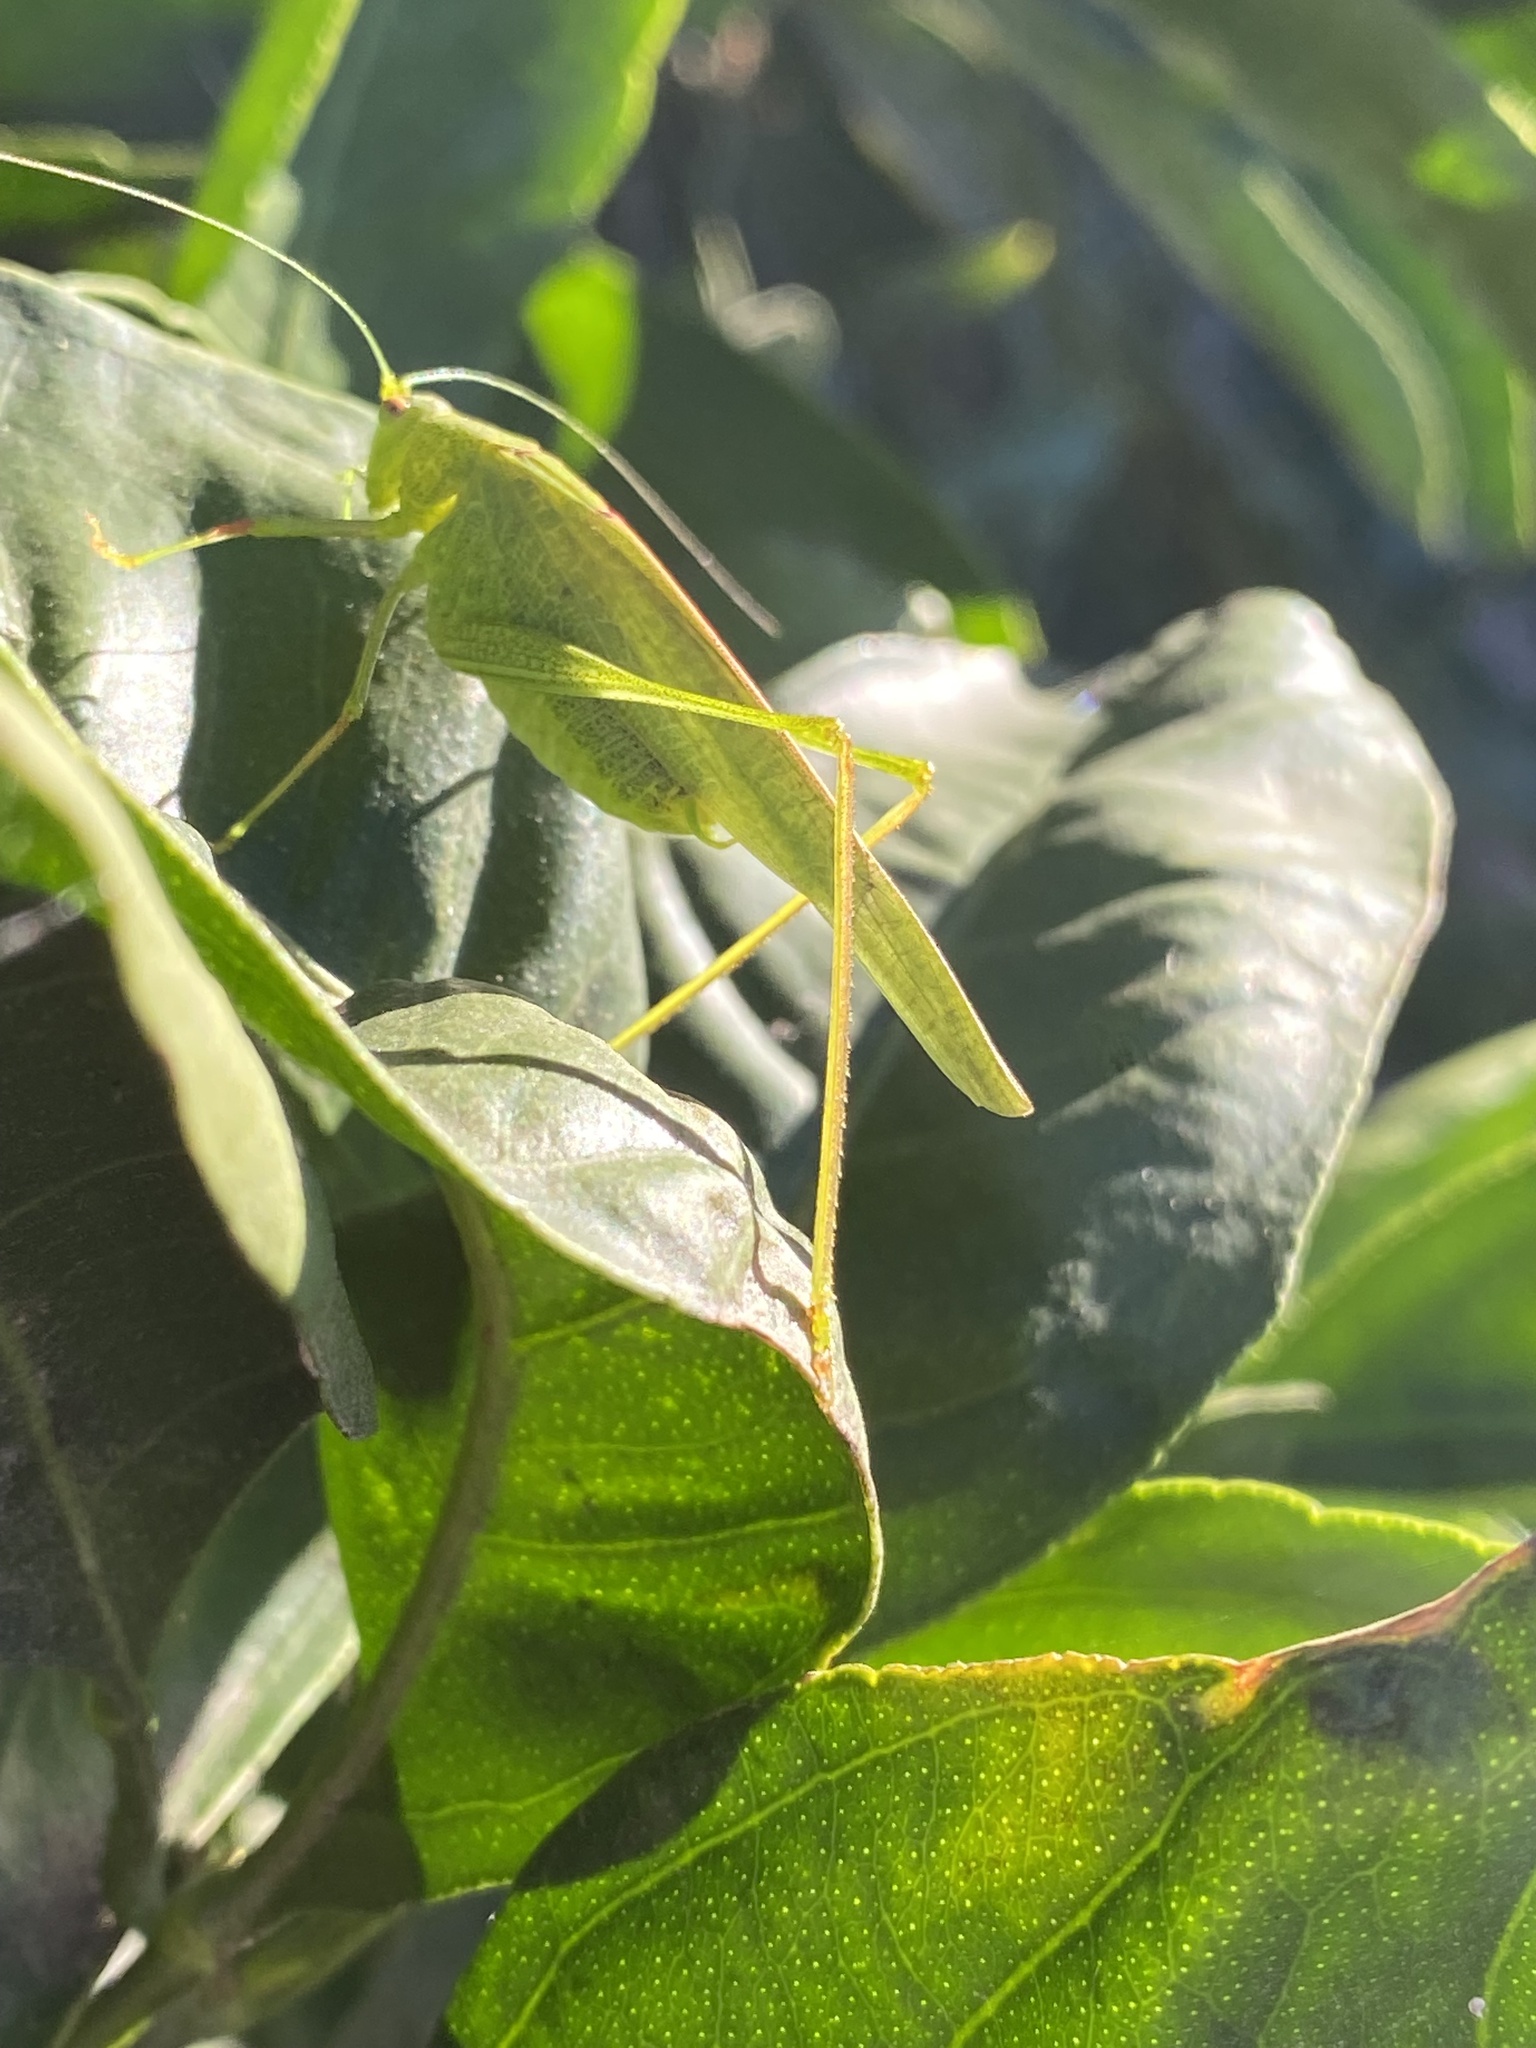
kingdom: Animalia
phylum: Arthropoda
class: Insecta
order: Orthoptera
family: Tettigoniidae
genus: Phaneroptera
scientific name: Phaneroptera nana
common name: Southern sickle bush-cricket
